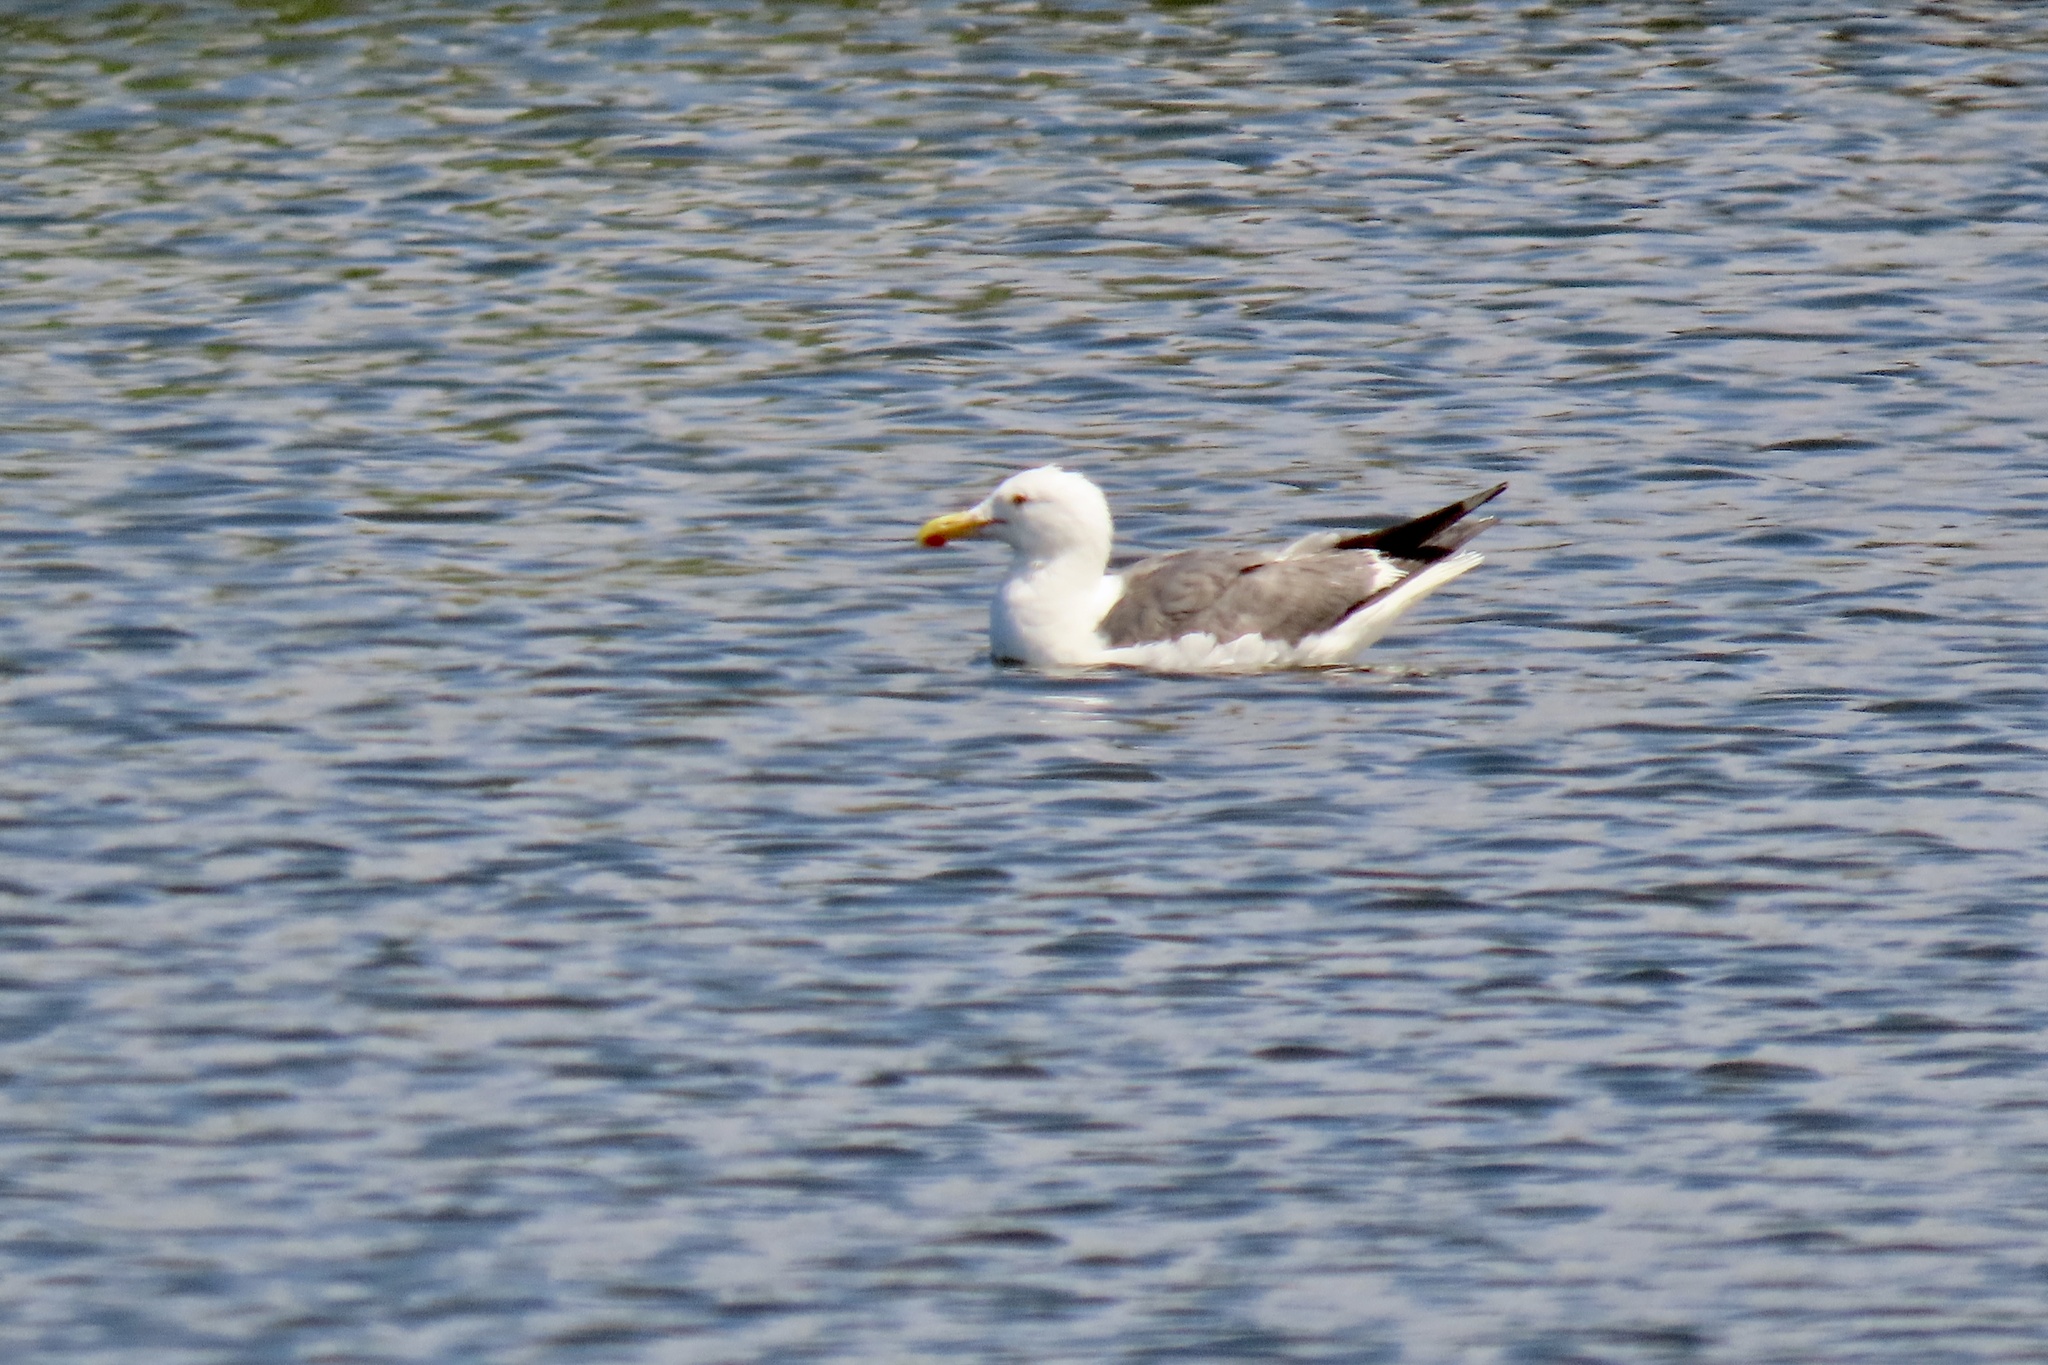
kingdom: Animalia
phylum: Chordata
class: Aves
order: Charadriiformes
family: Laridae
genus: Larus
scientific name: Larus occidentalis
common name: Western gull
